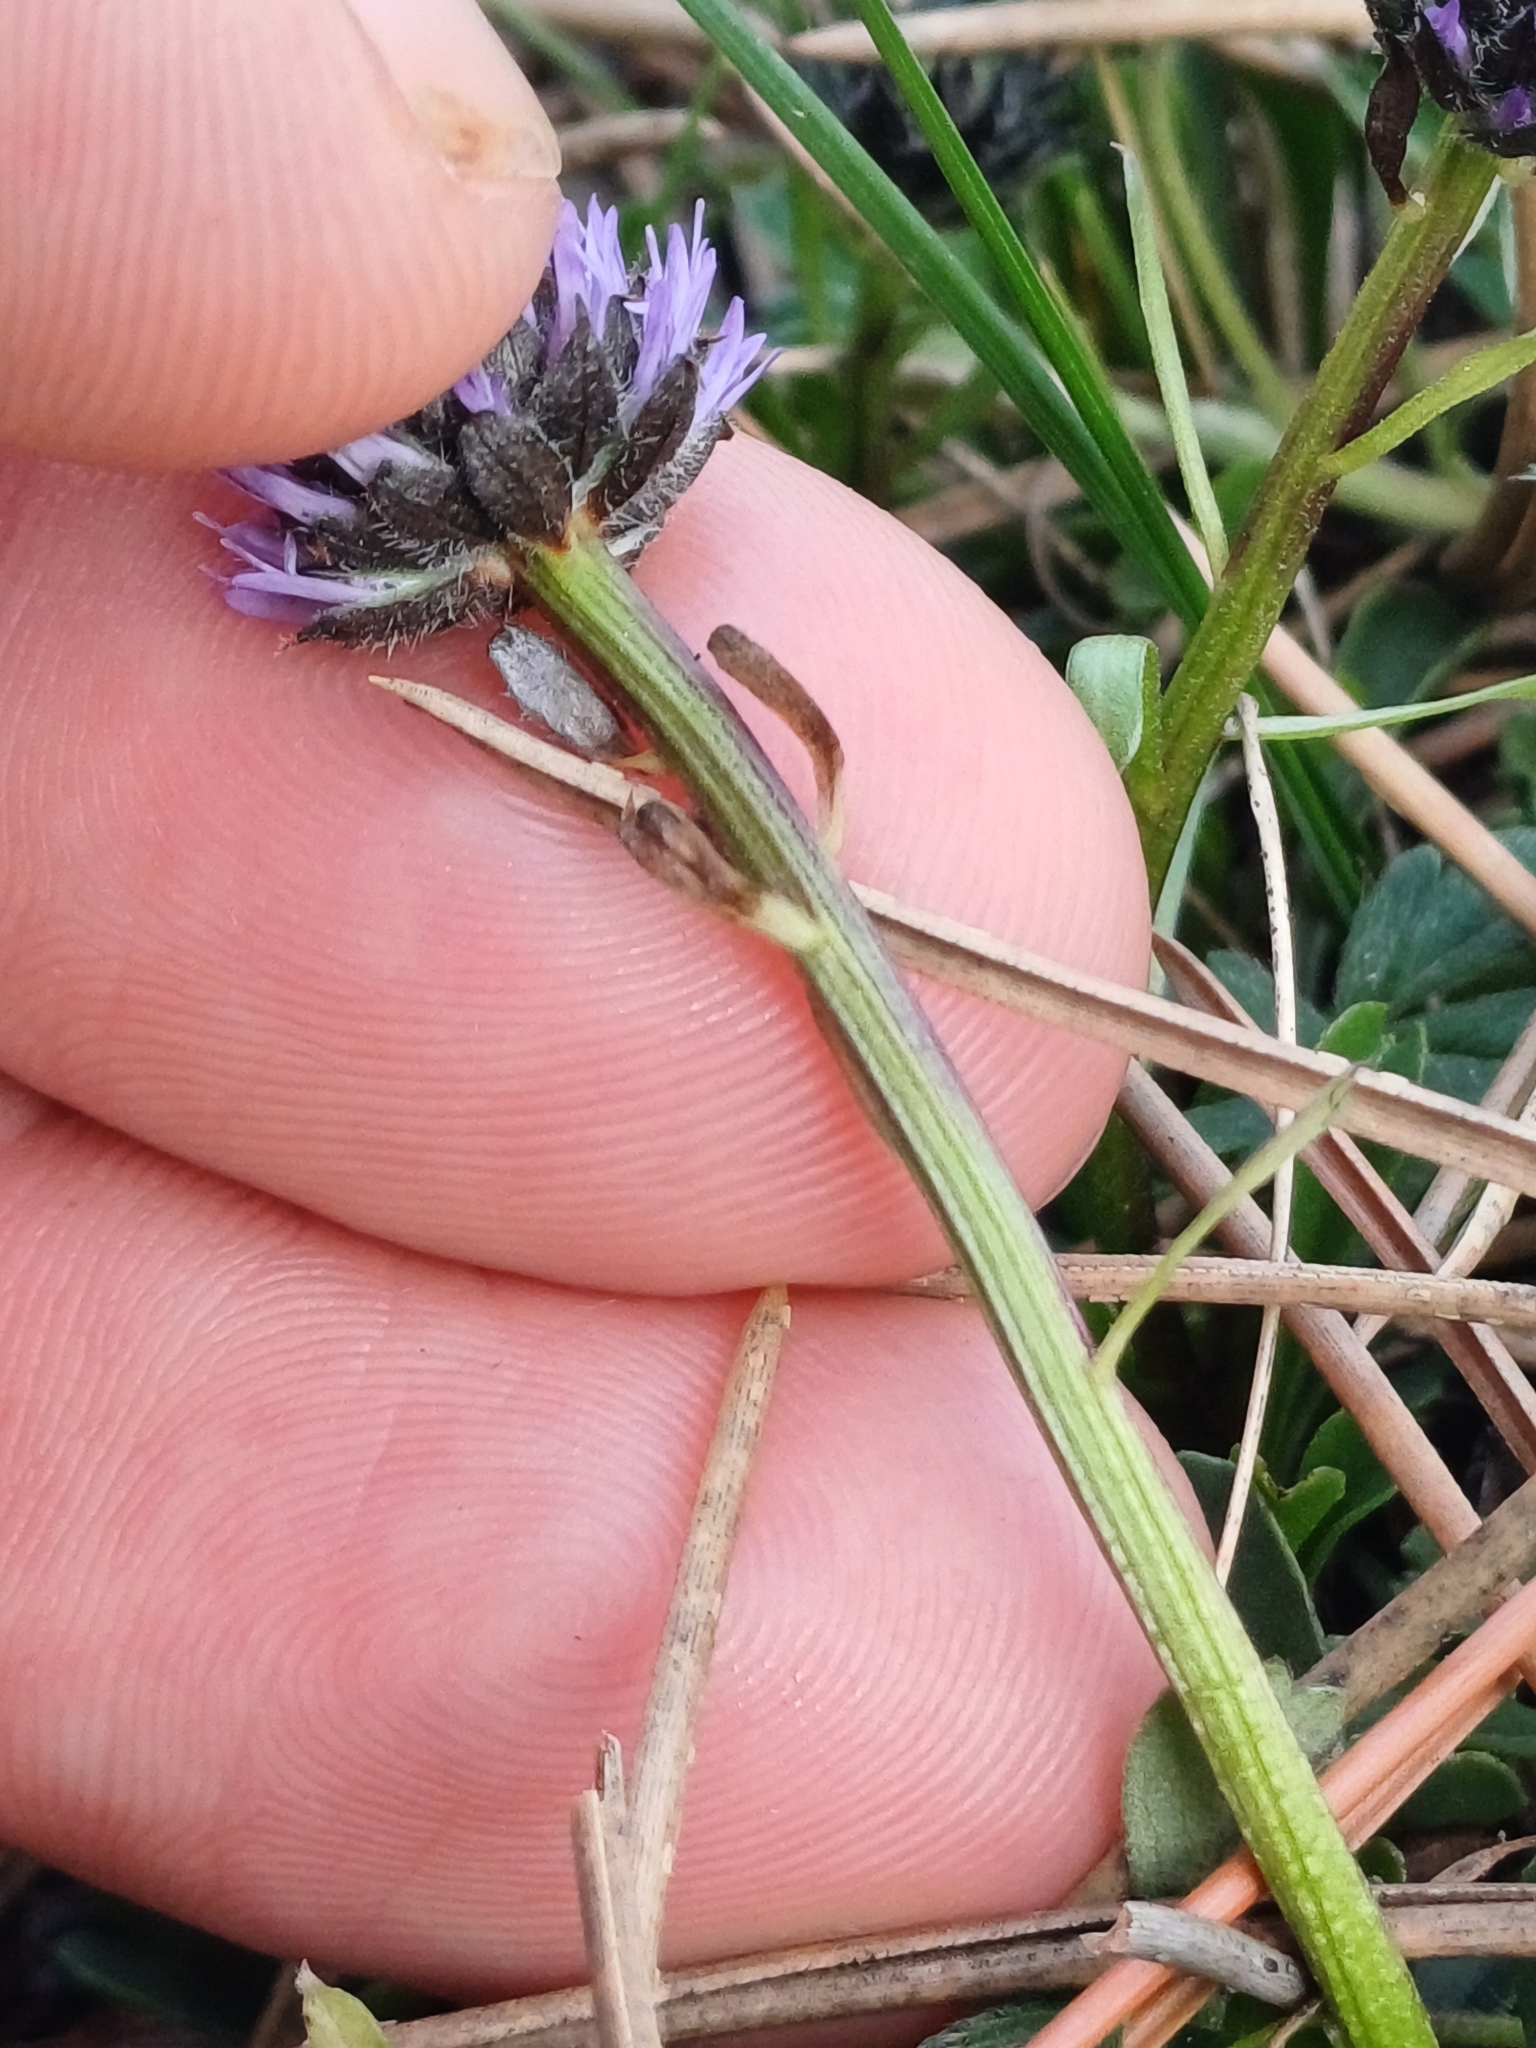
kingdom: Plantae
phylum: Tracheophyta
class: Magnoliopsida
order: Lamiales
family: Plantaginaceae
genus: Globularia
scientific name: Globularia cordifolia
